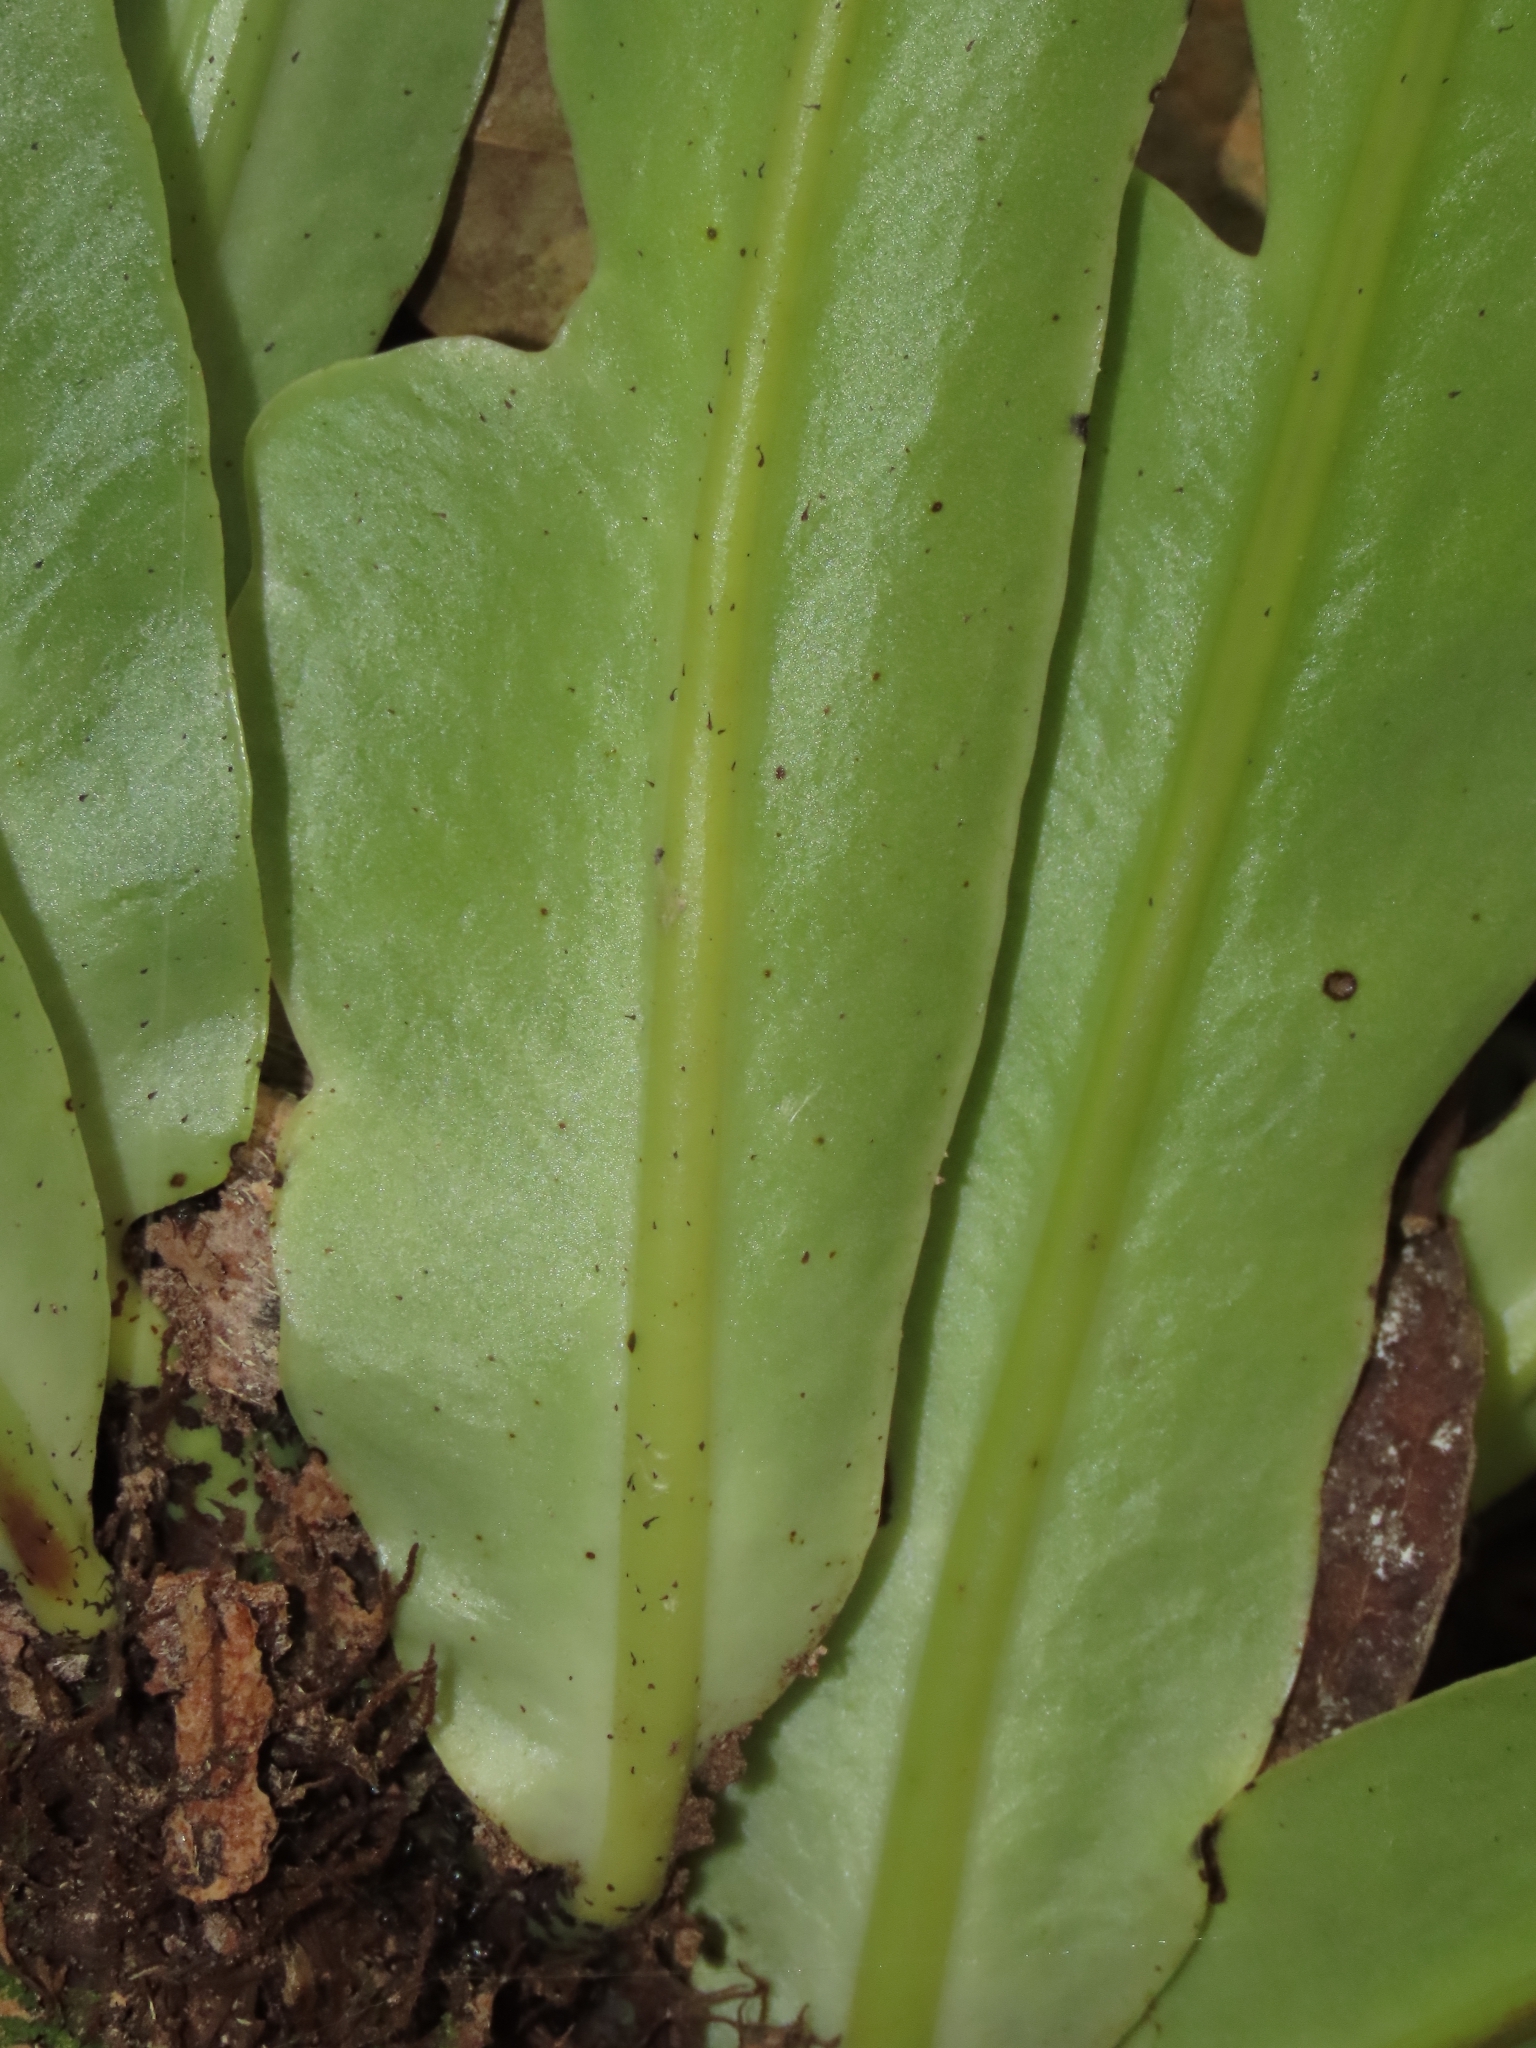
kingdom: Plantae
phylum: Tracheophyta
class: Polypodiopsida
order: Polypodiales
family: Polypodiaceae
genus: Microsorum
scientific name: Microsorum punctatum
